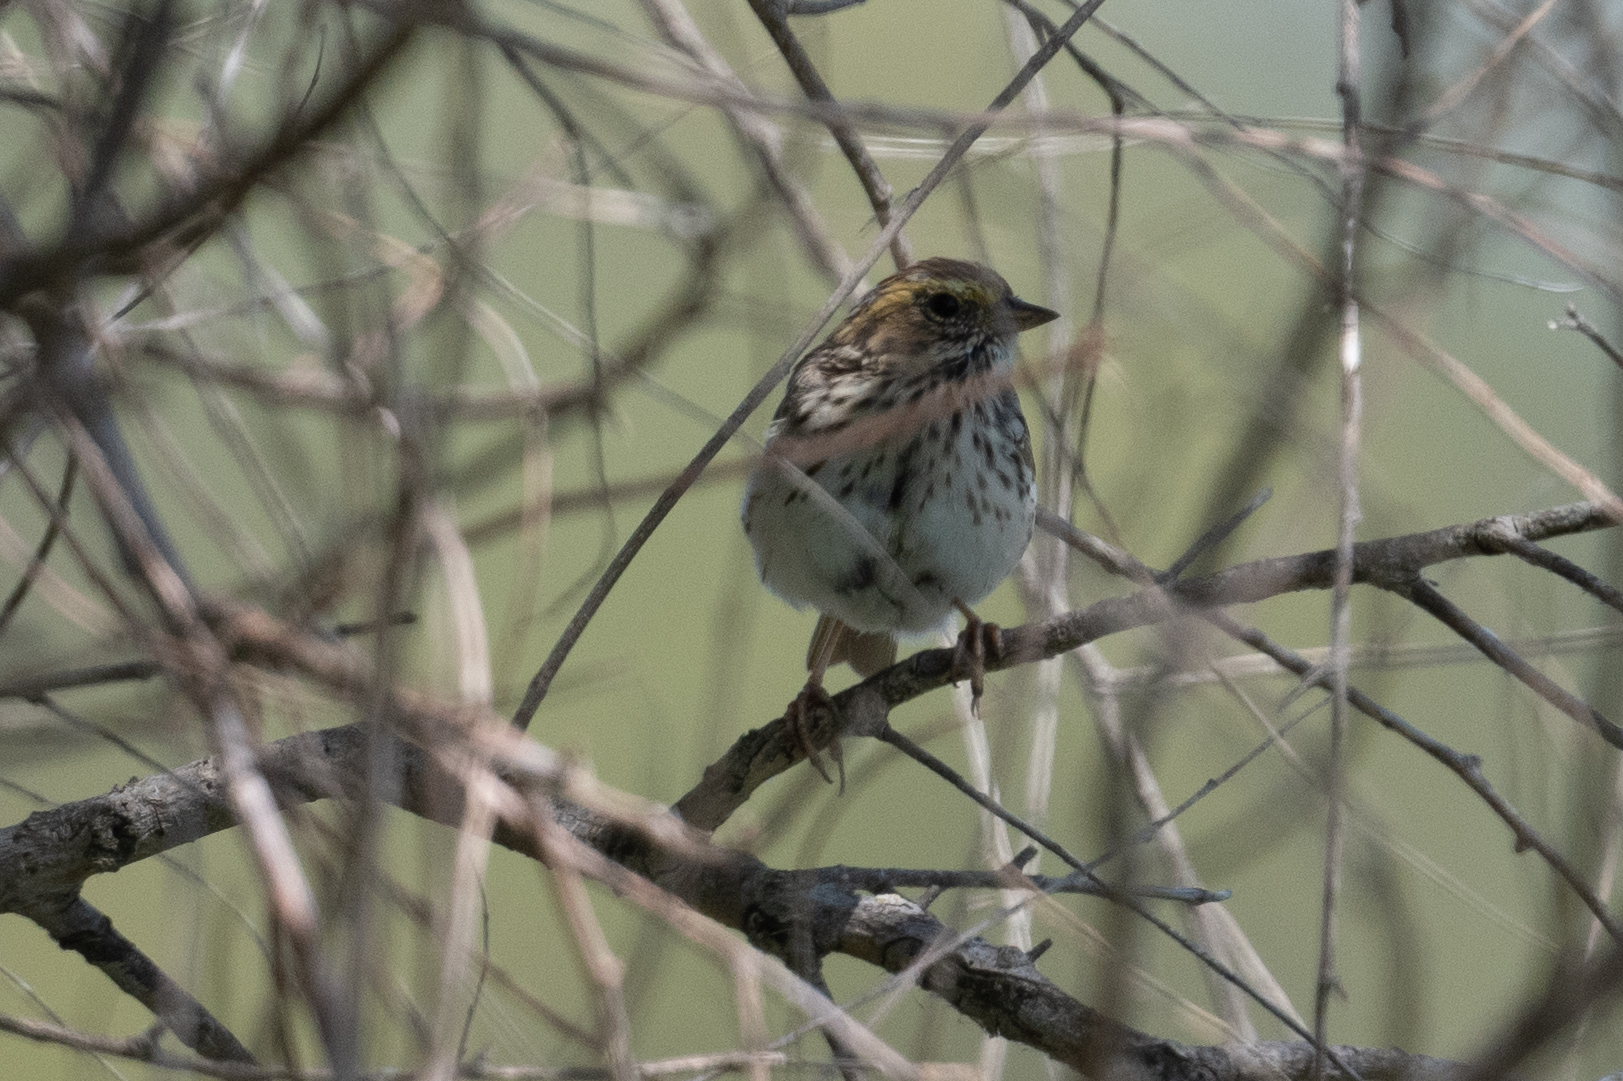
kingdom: Animalia
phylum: Chordata
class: Aves
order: Passeriformes
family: Passerellidae
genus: Passerculus
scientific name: Passerculus sandwichensis
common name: Savannah sparrow
